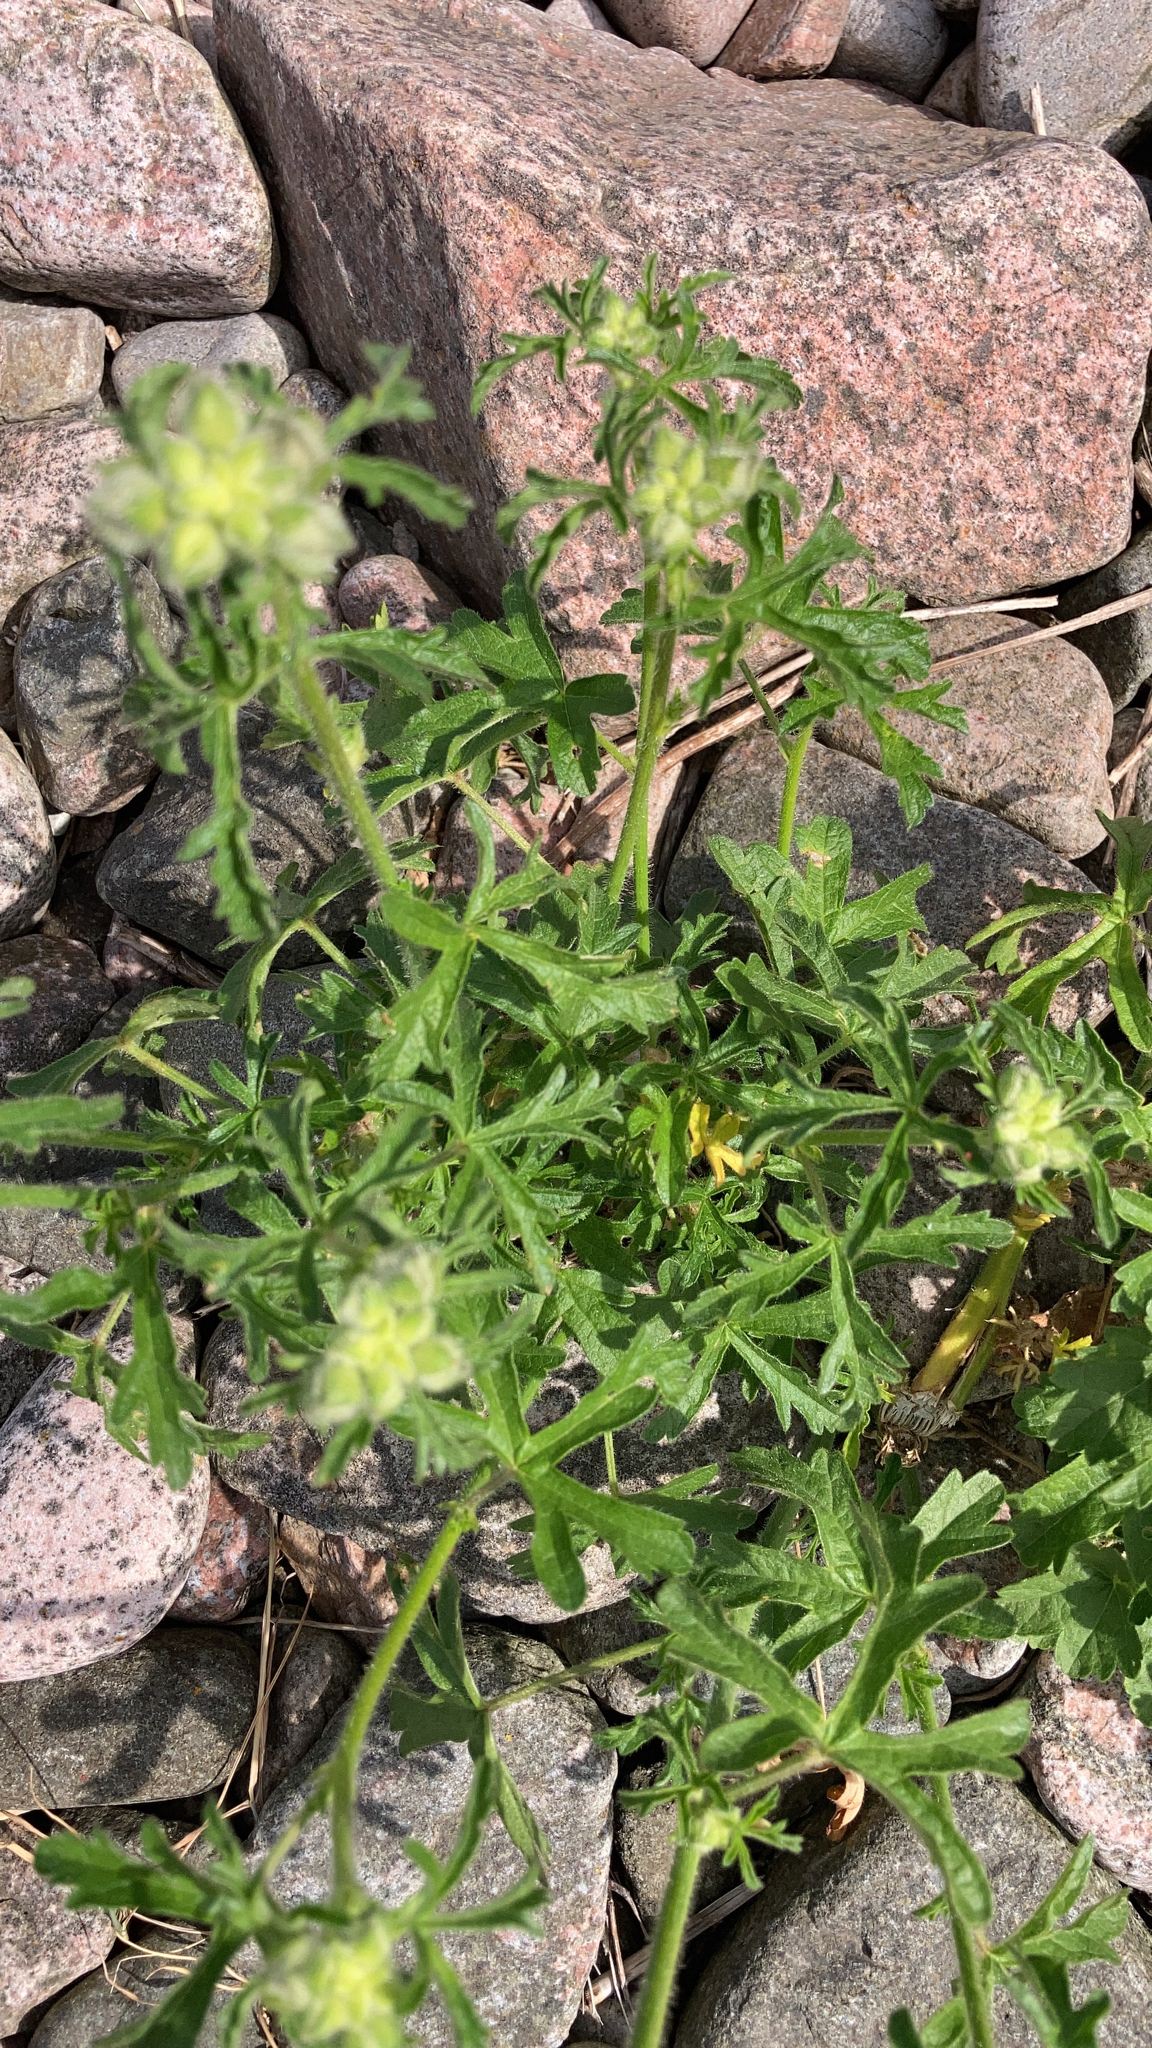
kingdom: Plantae
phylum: Tracheophyta
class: Magnoliopsida
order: Malvales
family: Malvaceae
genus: Malva
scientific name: Malva moschata
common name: Musk mallow
